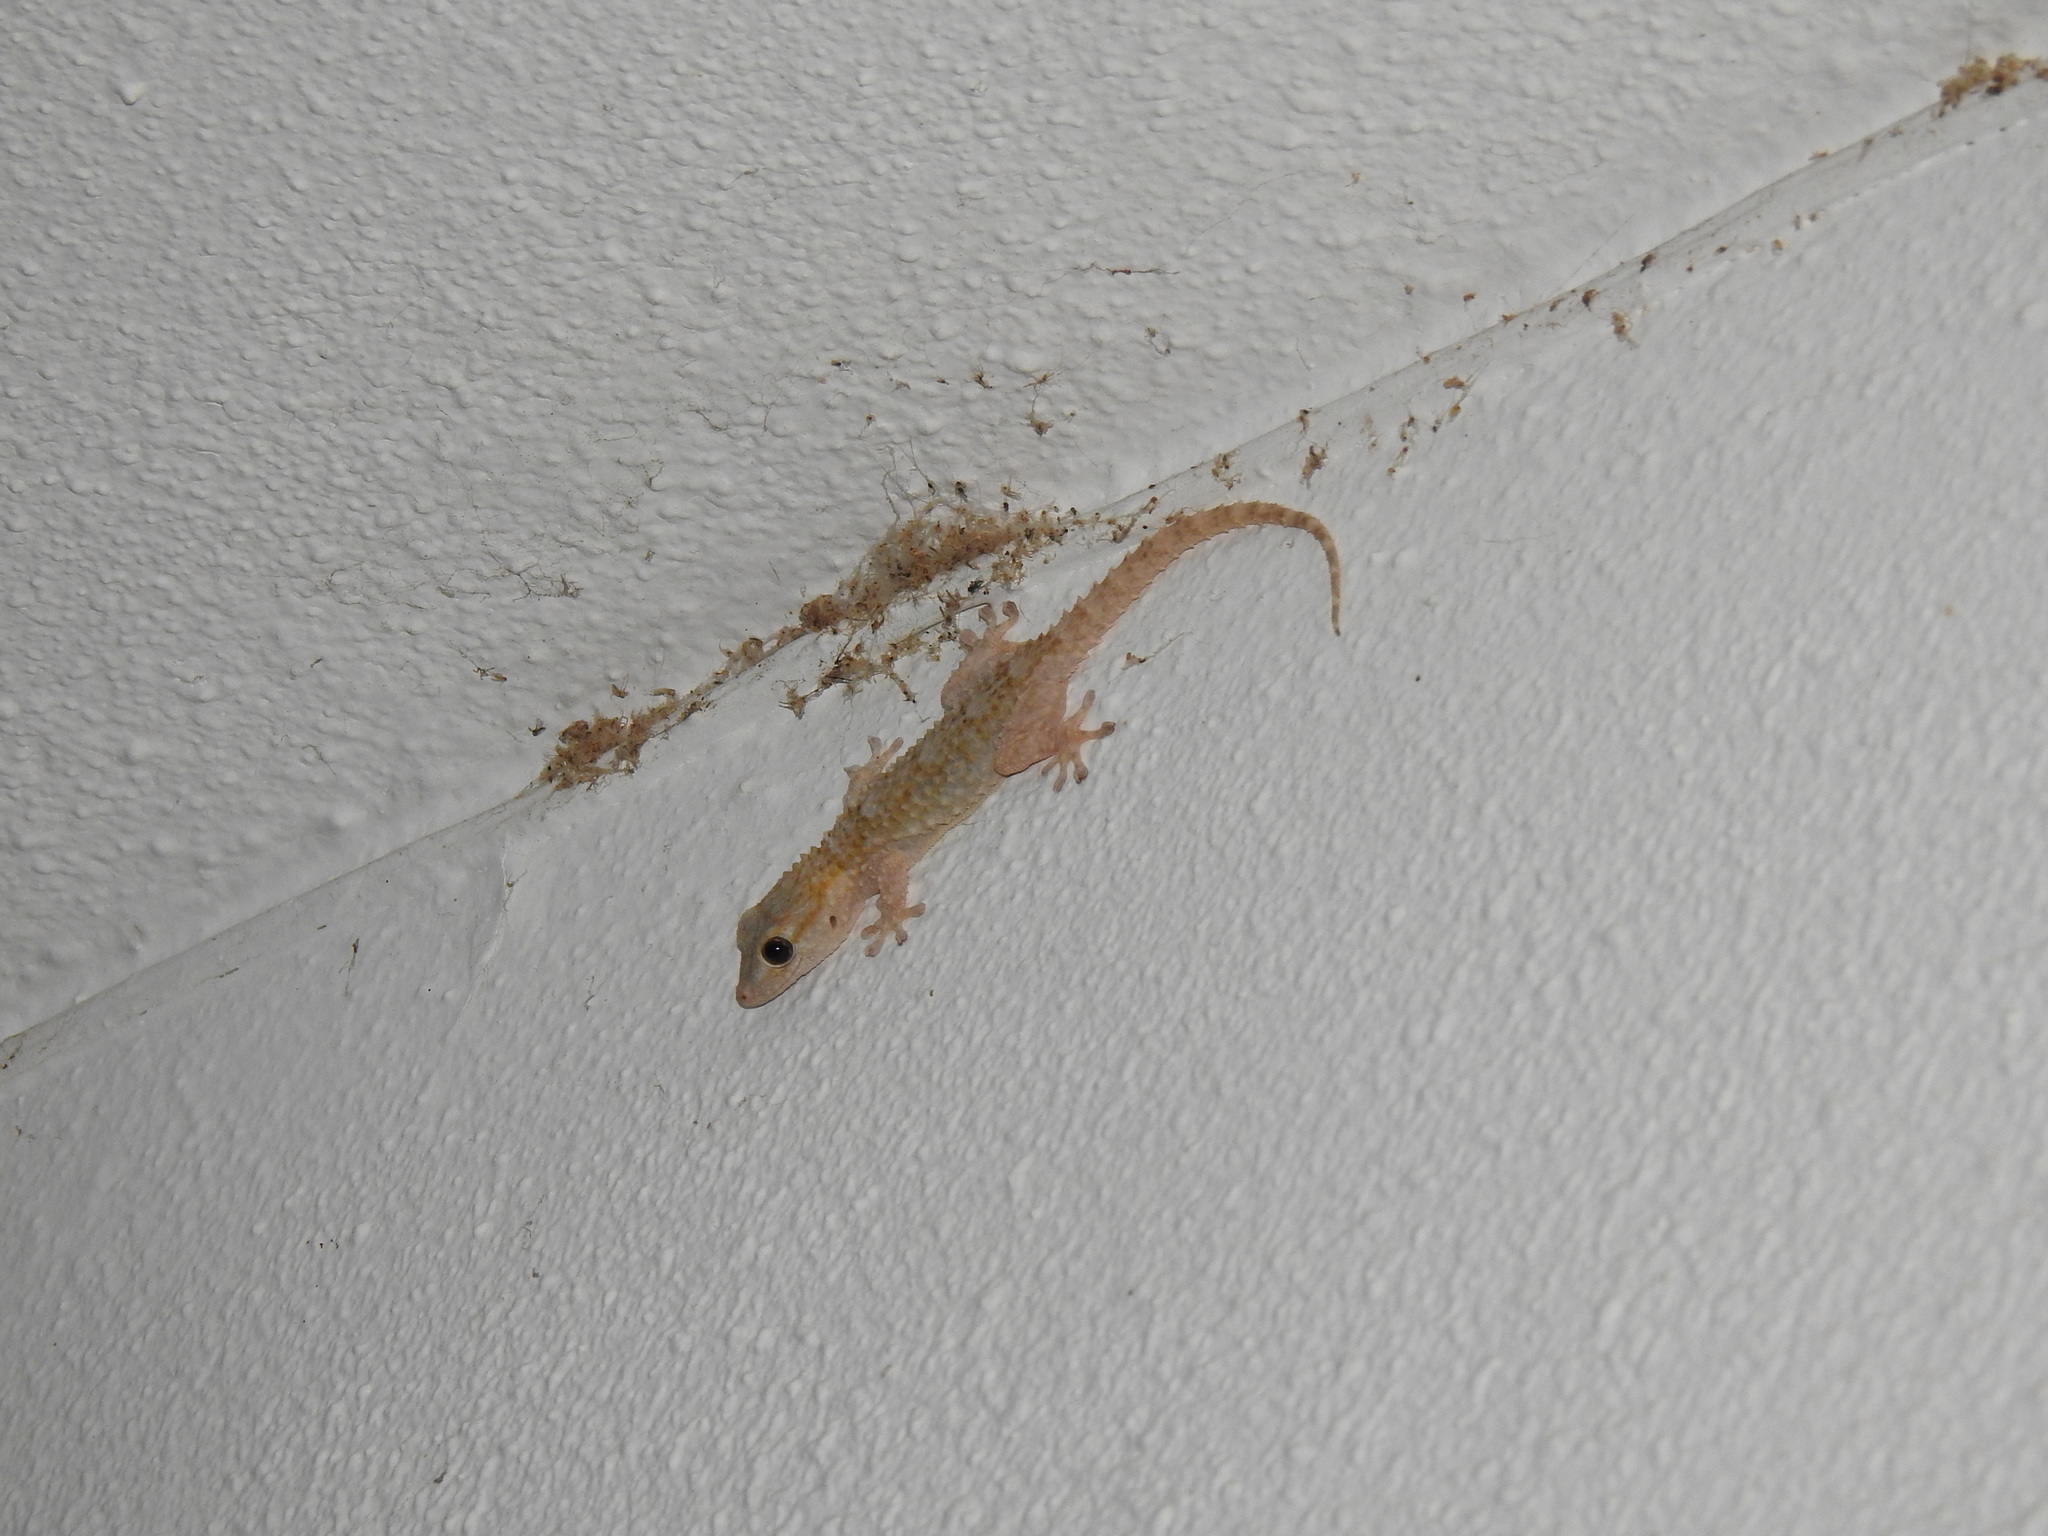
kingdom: Animalia
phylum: Chordata
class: Squamata
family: Phyllodactylidae
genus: Tarentola
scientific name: Tarentola mauritanica
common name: Moorish gecko
